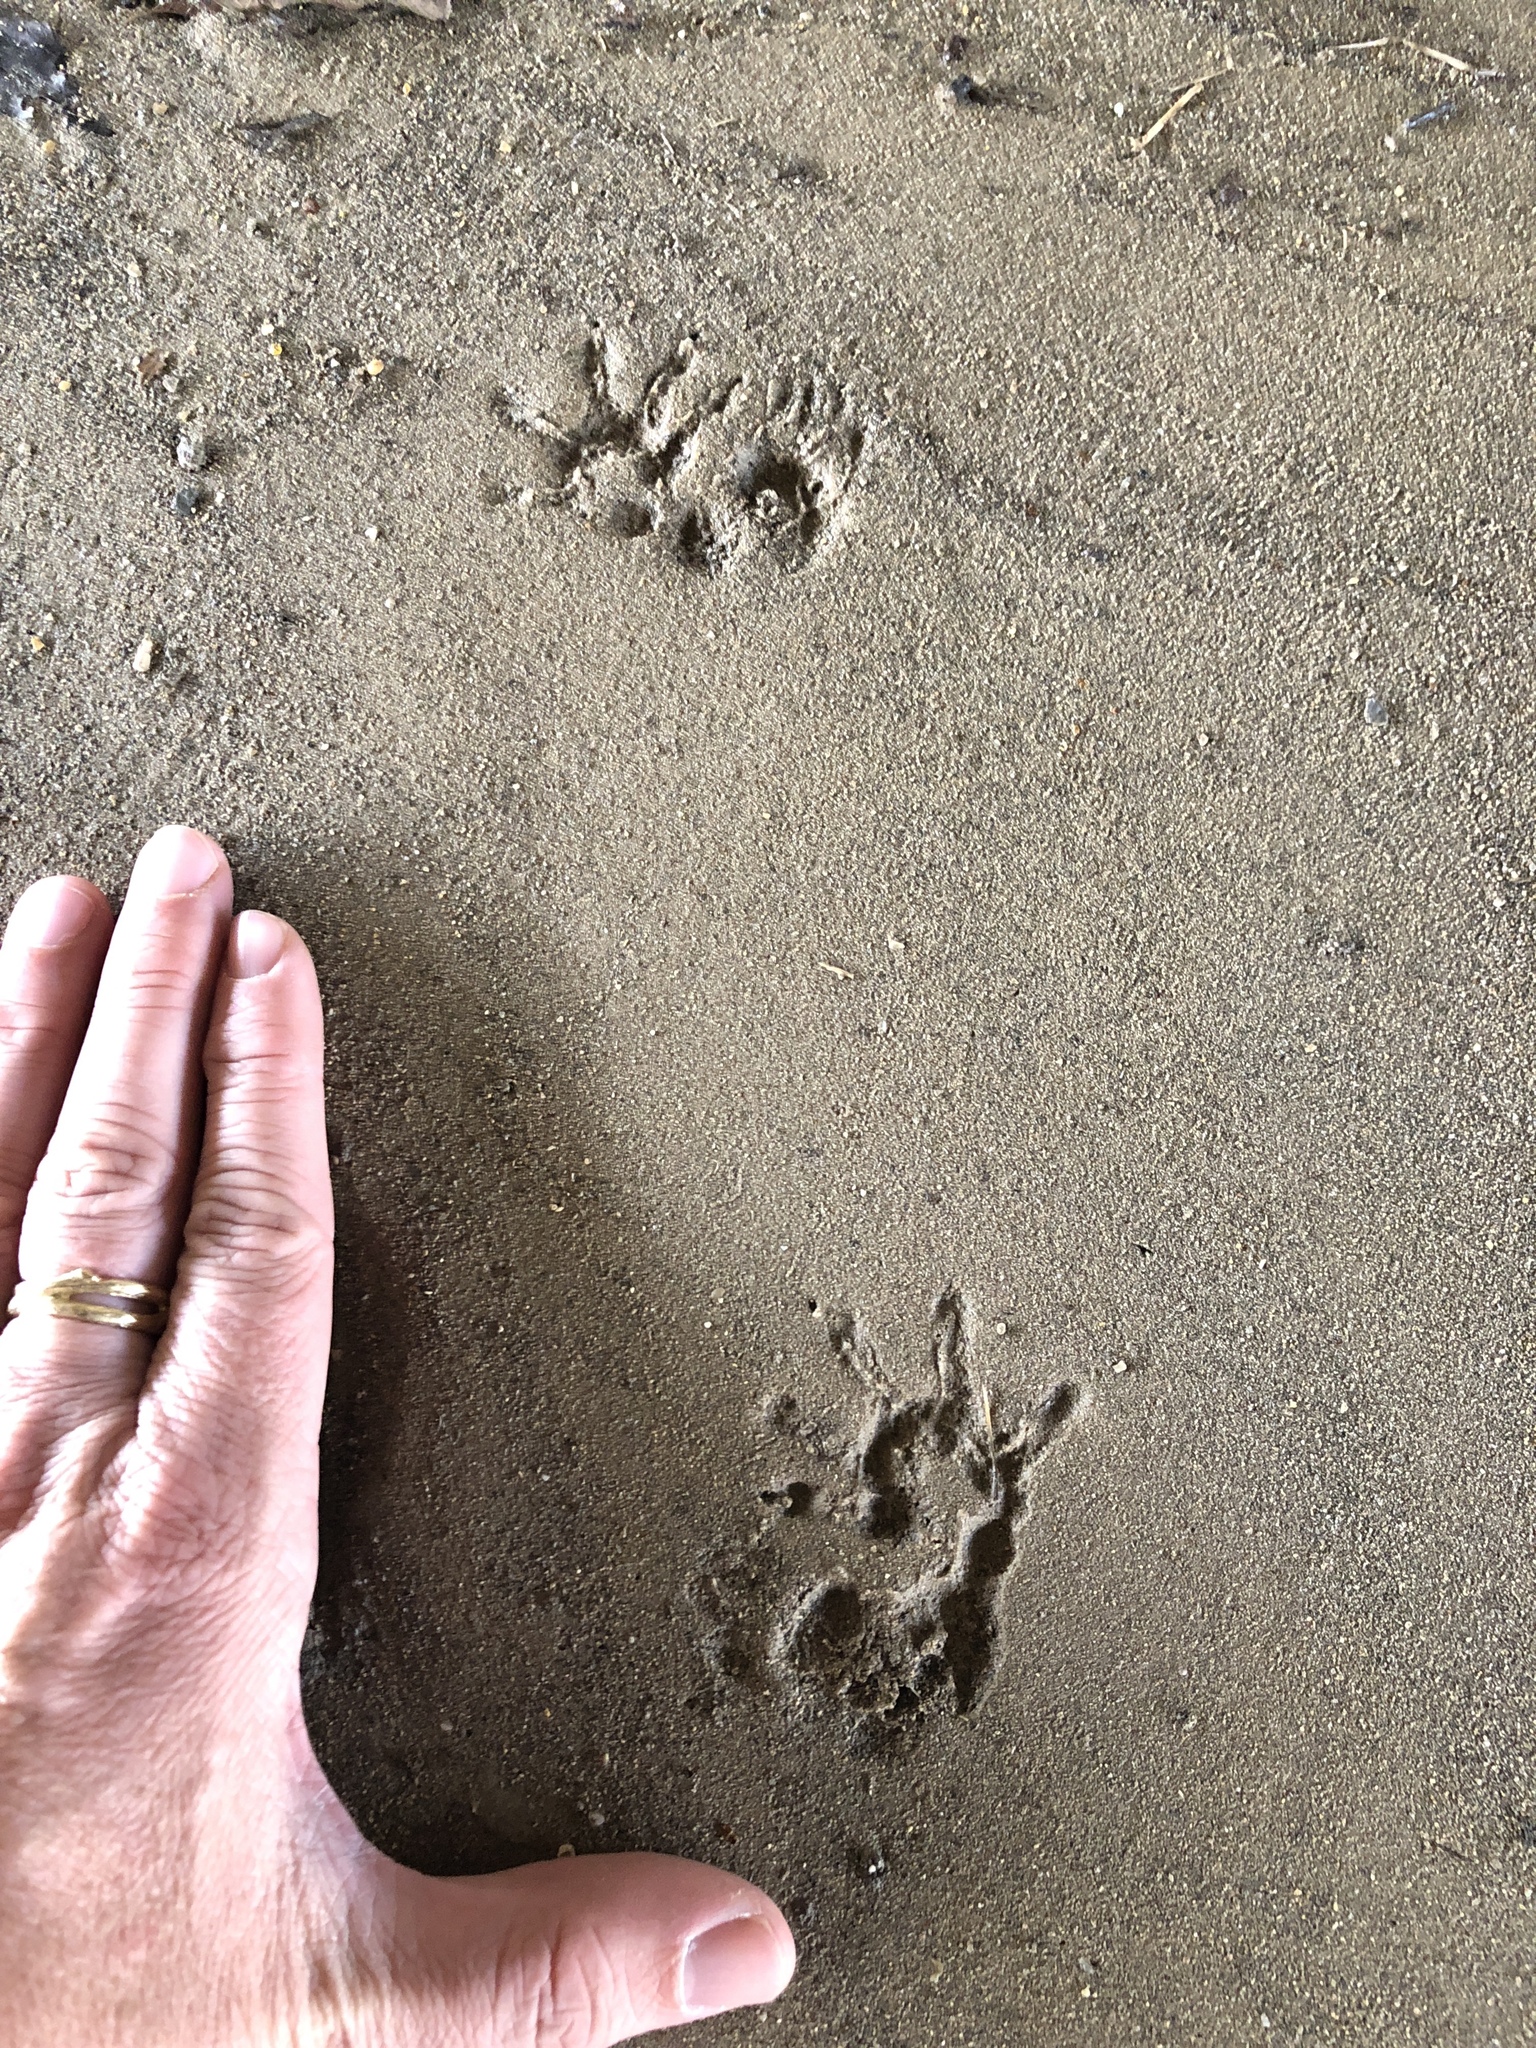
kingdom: Animalia
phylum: Chordata
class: Mammalia
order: Didelphimorphia
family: Didelphidae
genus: Didelphis
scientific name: Didelphis virginiana
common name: Virginia opossum
